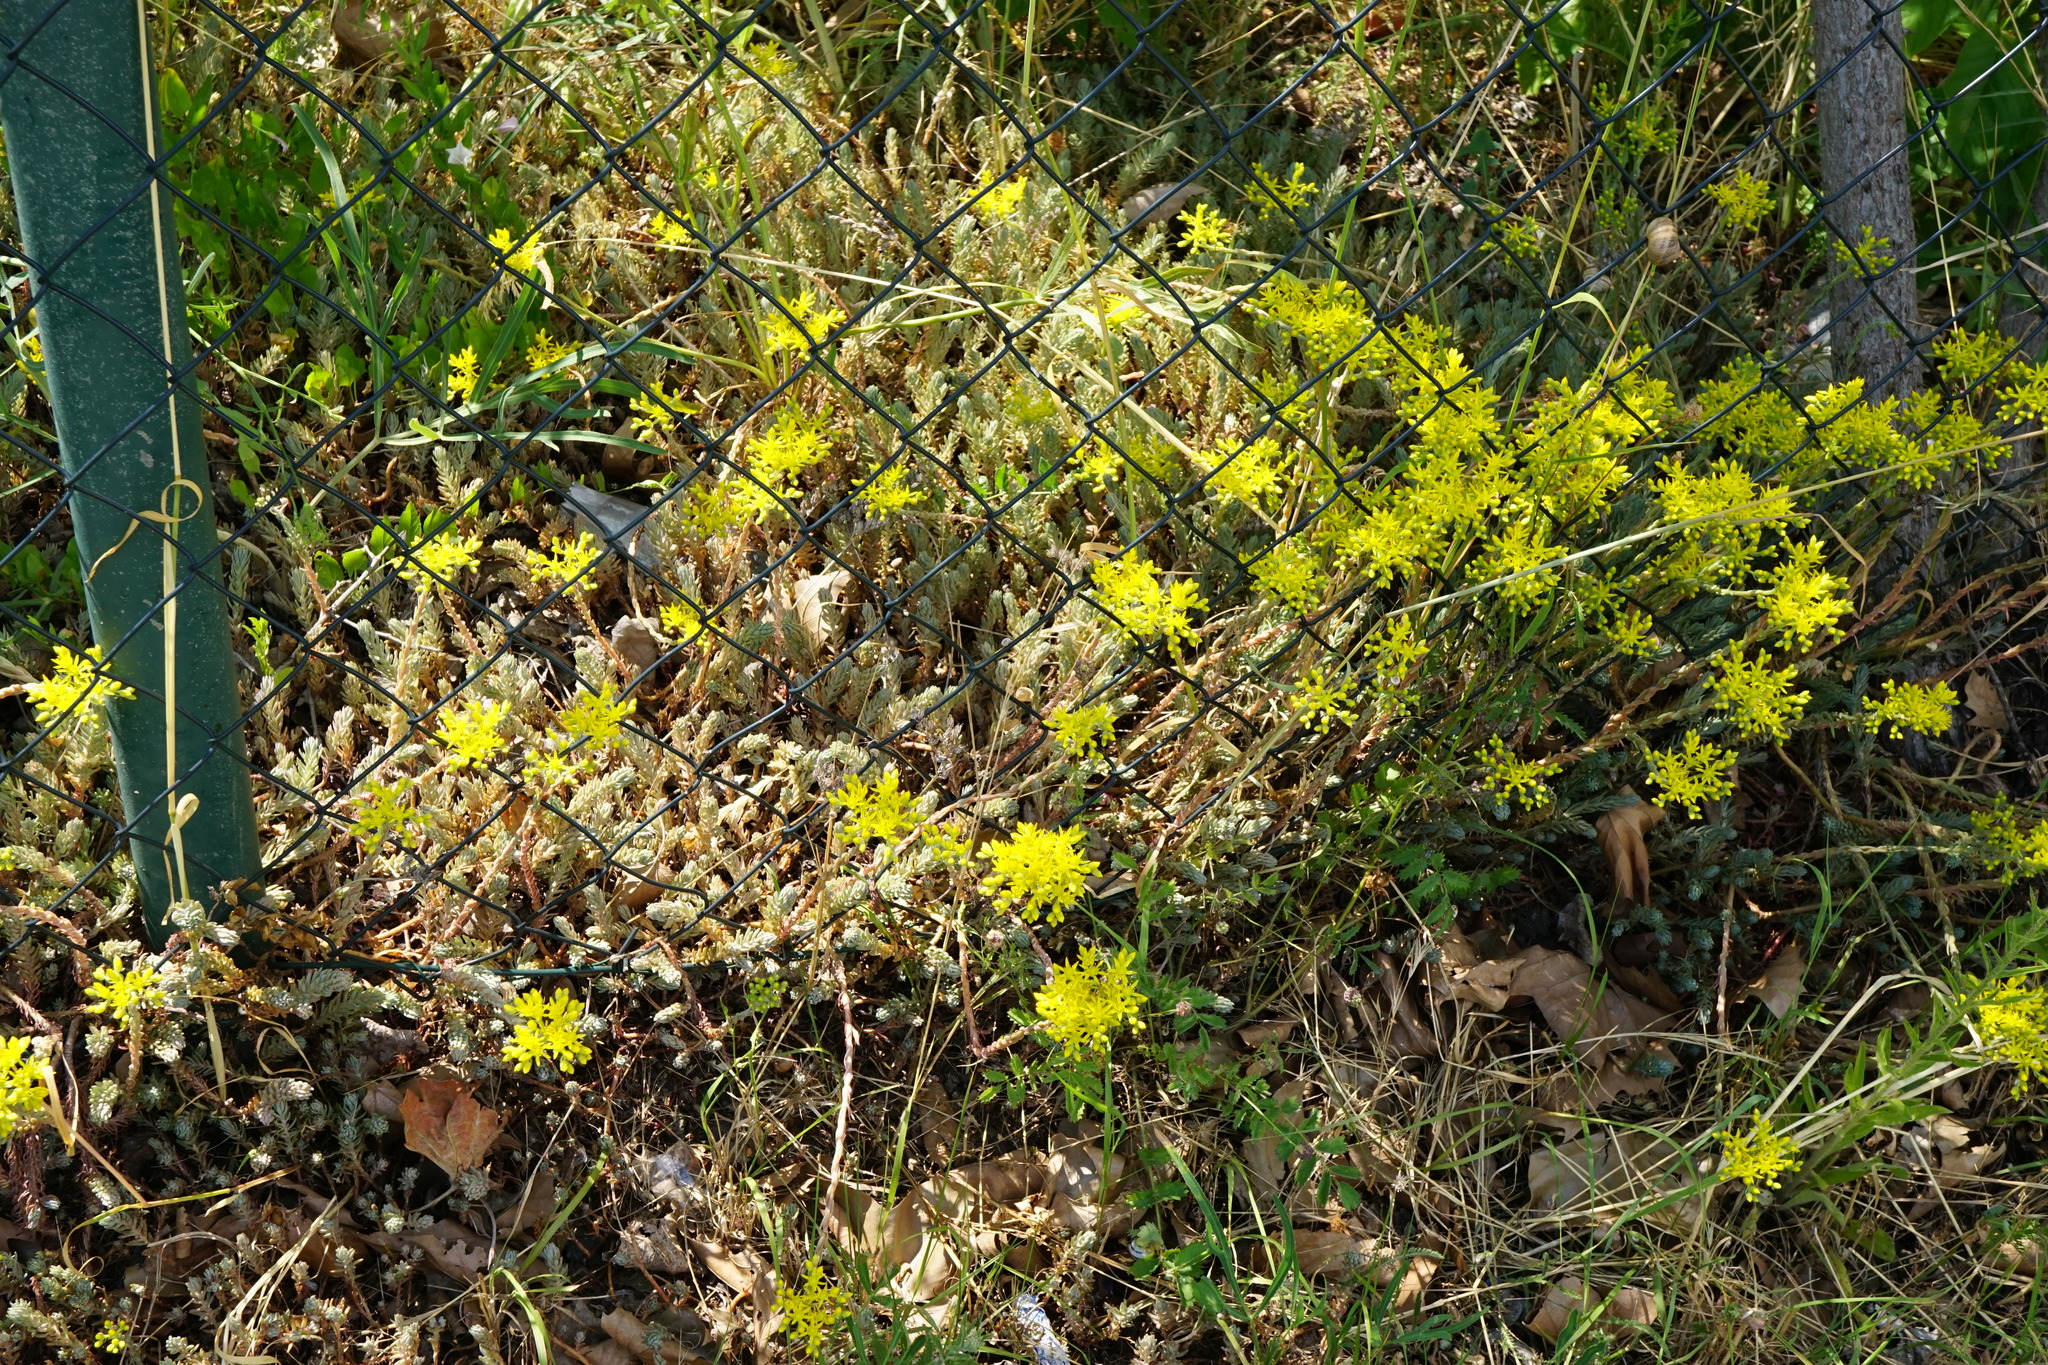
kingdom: Plantae
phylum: Tracheophyta
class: Magnoliopsida
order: Saxifragales
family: Crassulaceae
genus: Petrosedum
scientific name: Petrosedum orientale
